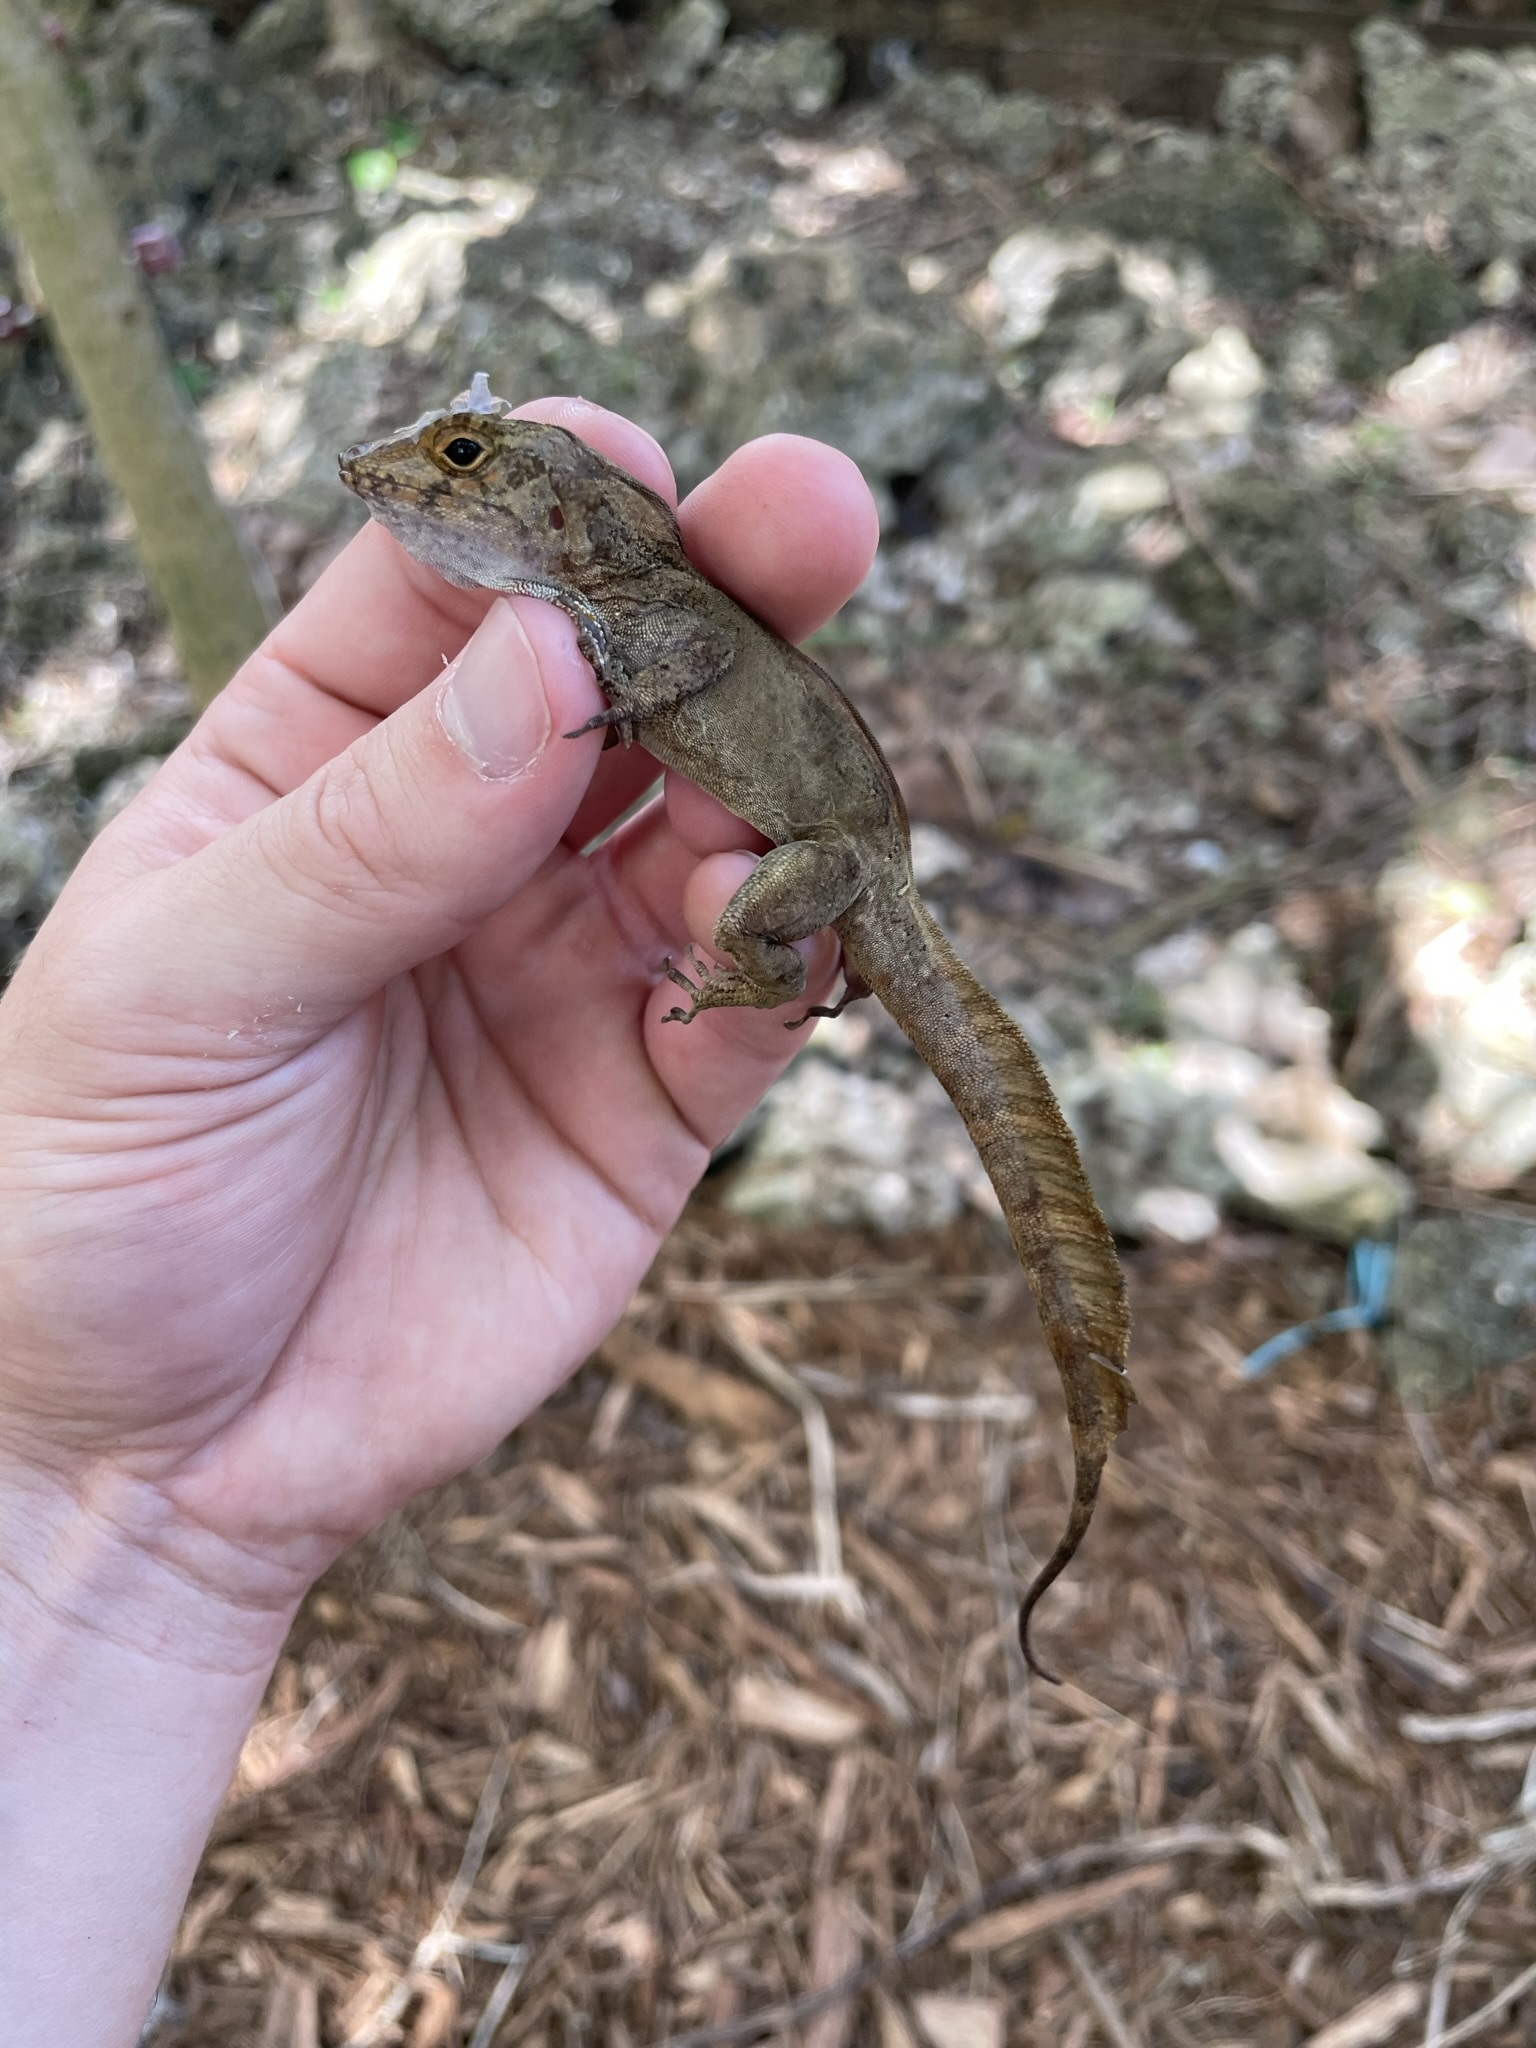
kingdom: Animalia
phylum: Chordata
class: Squamata
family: Dactyloidae
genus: Anolis
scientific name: Anolis cristatellus
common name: Crested anole
